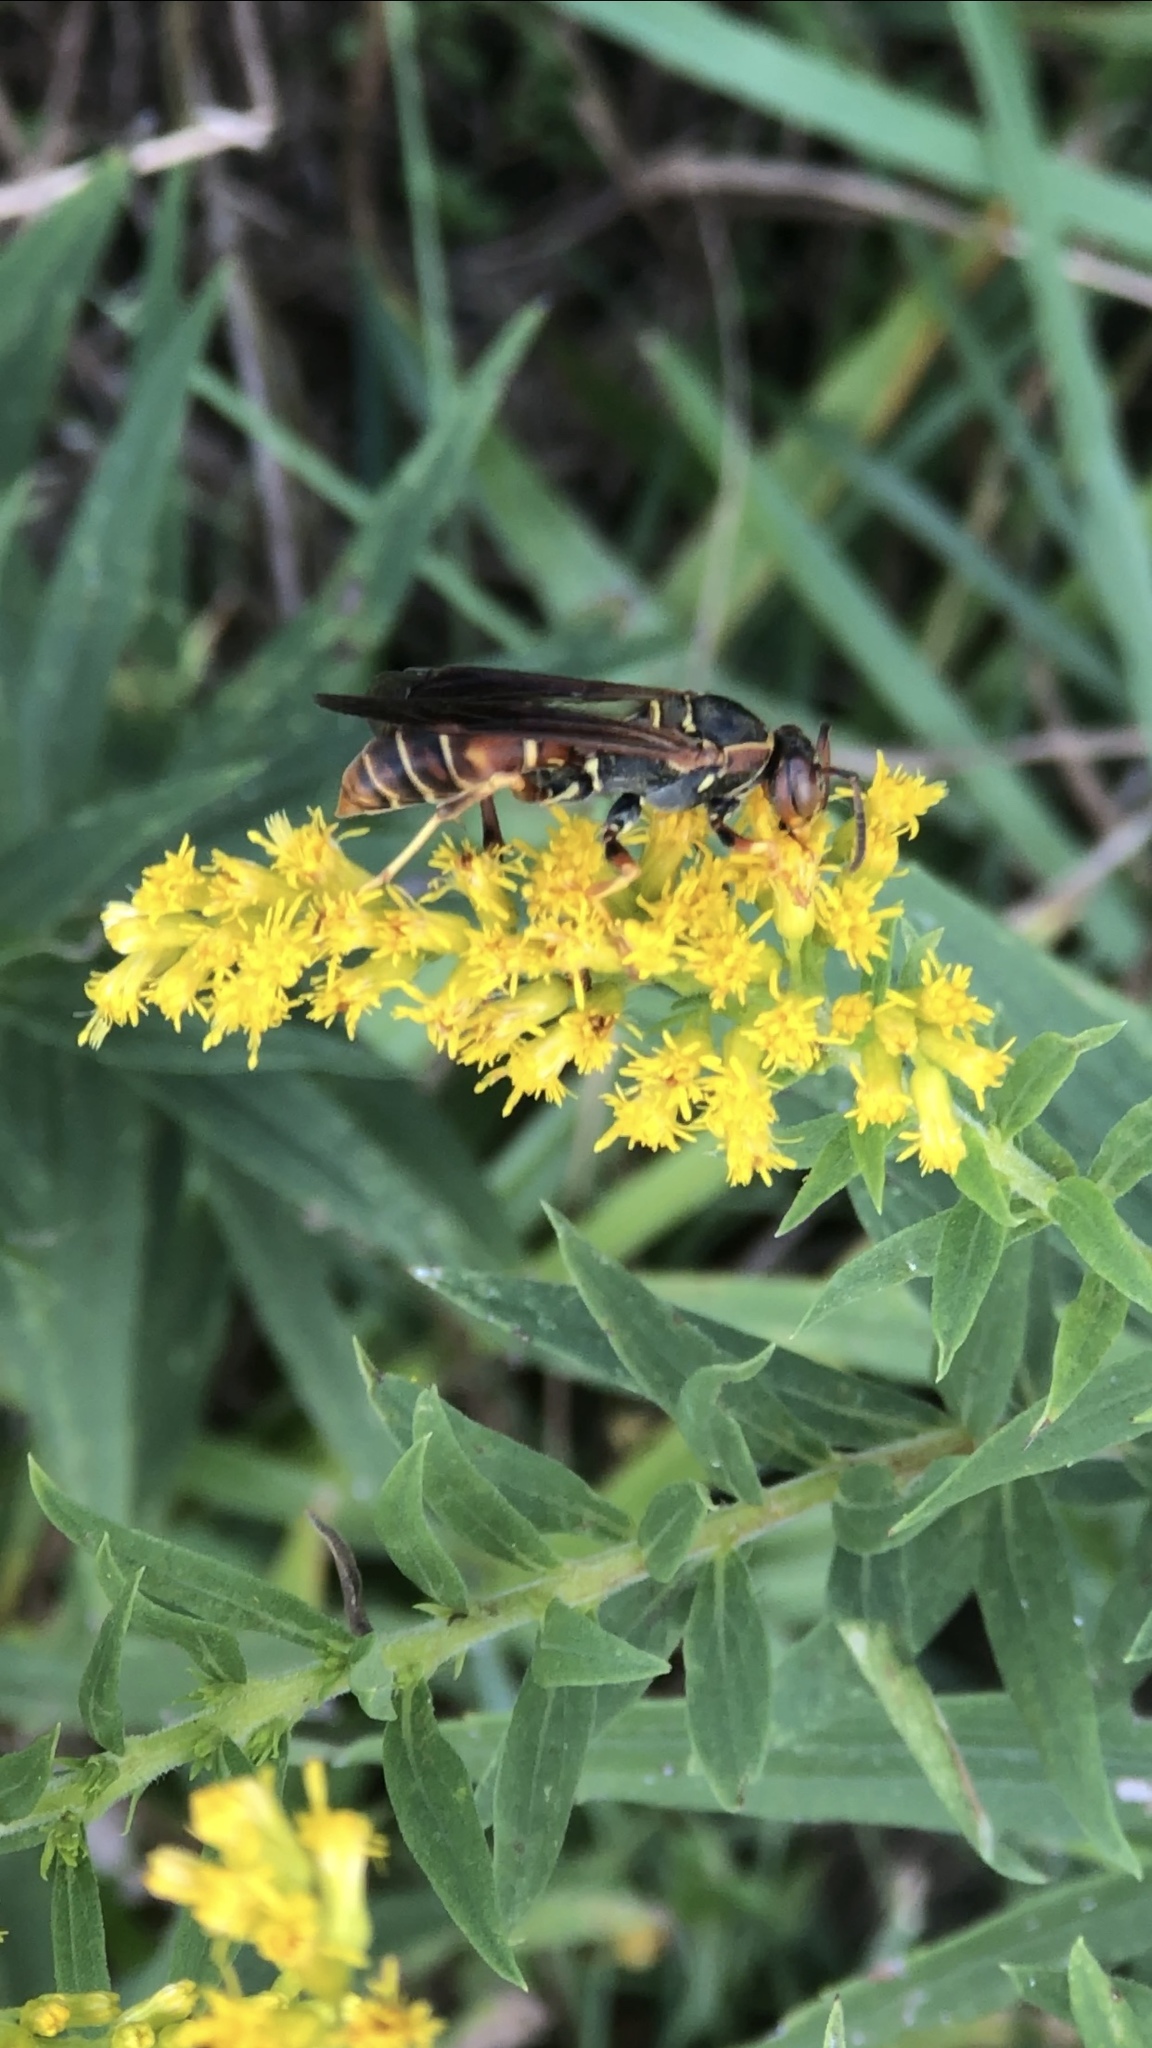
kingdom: Animalia
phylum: Arthropoda
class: Insecta
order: Hymenoptera
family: Eumenidae
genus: Polistes
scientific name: Polistes fuscatus
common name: Dark paper wasp
